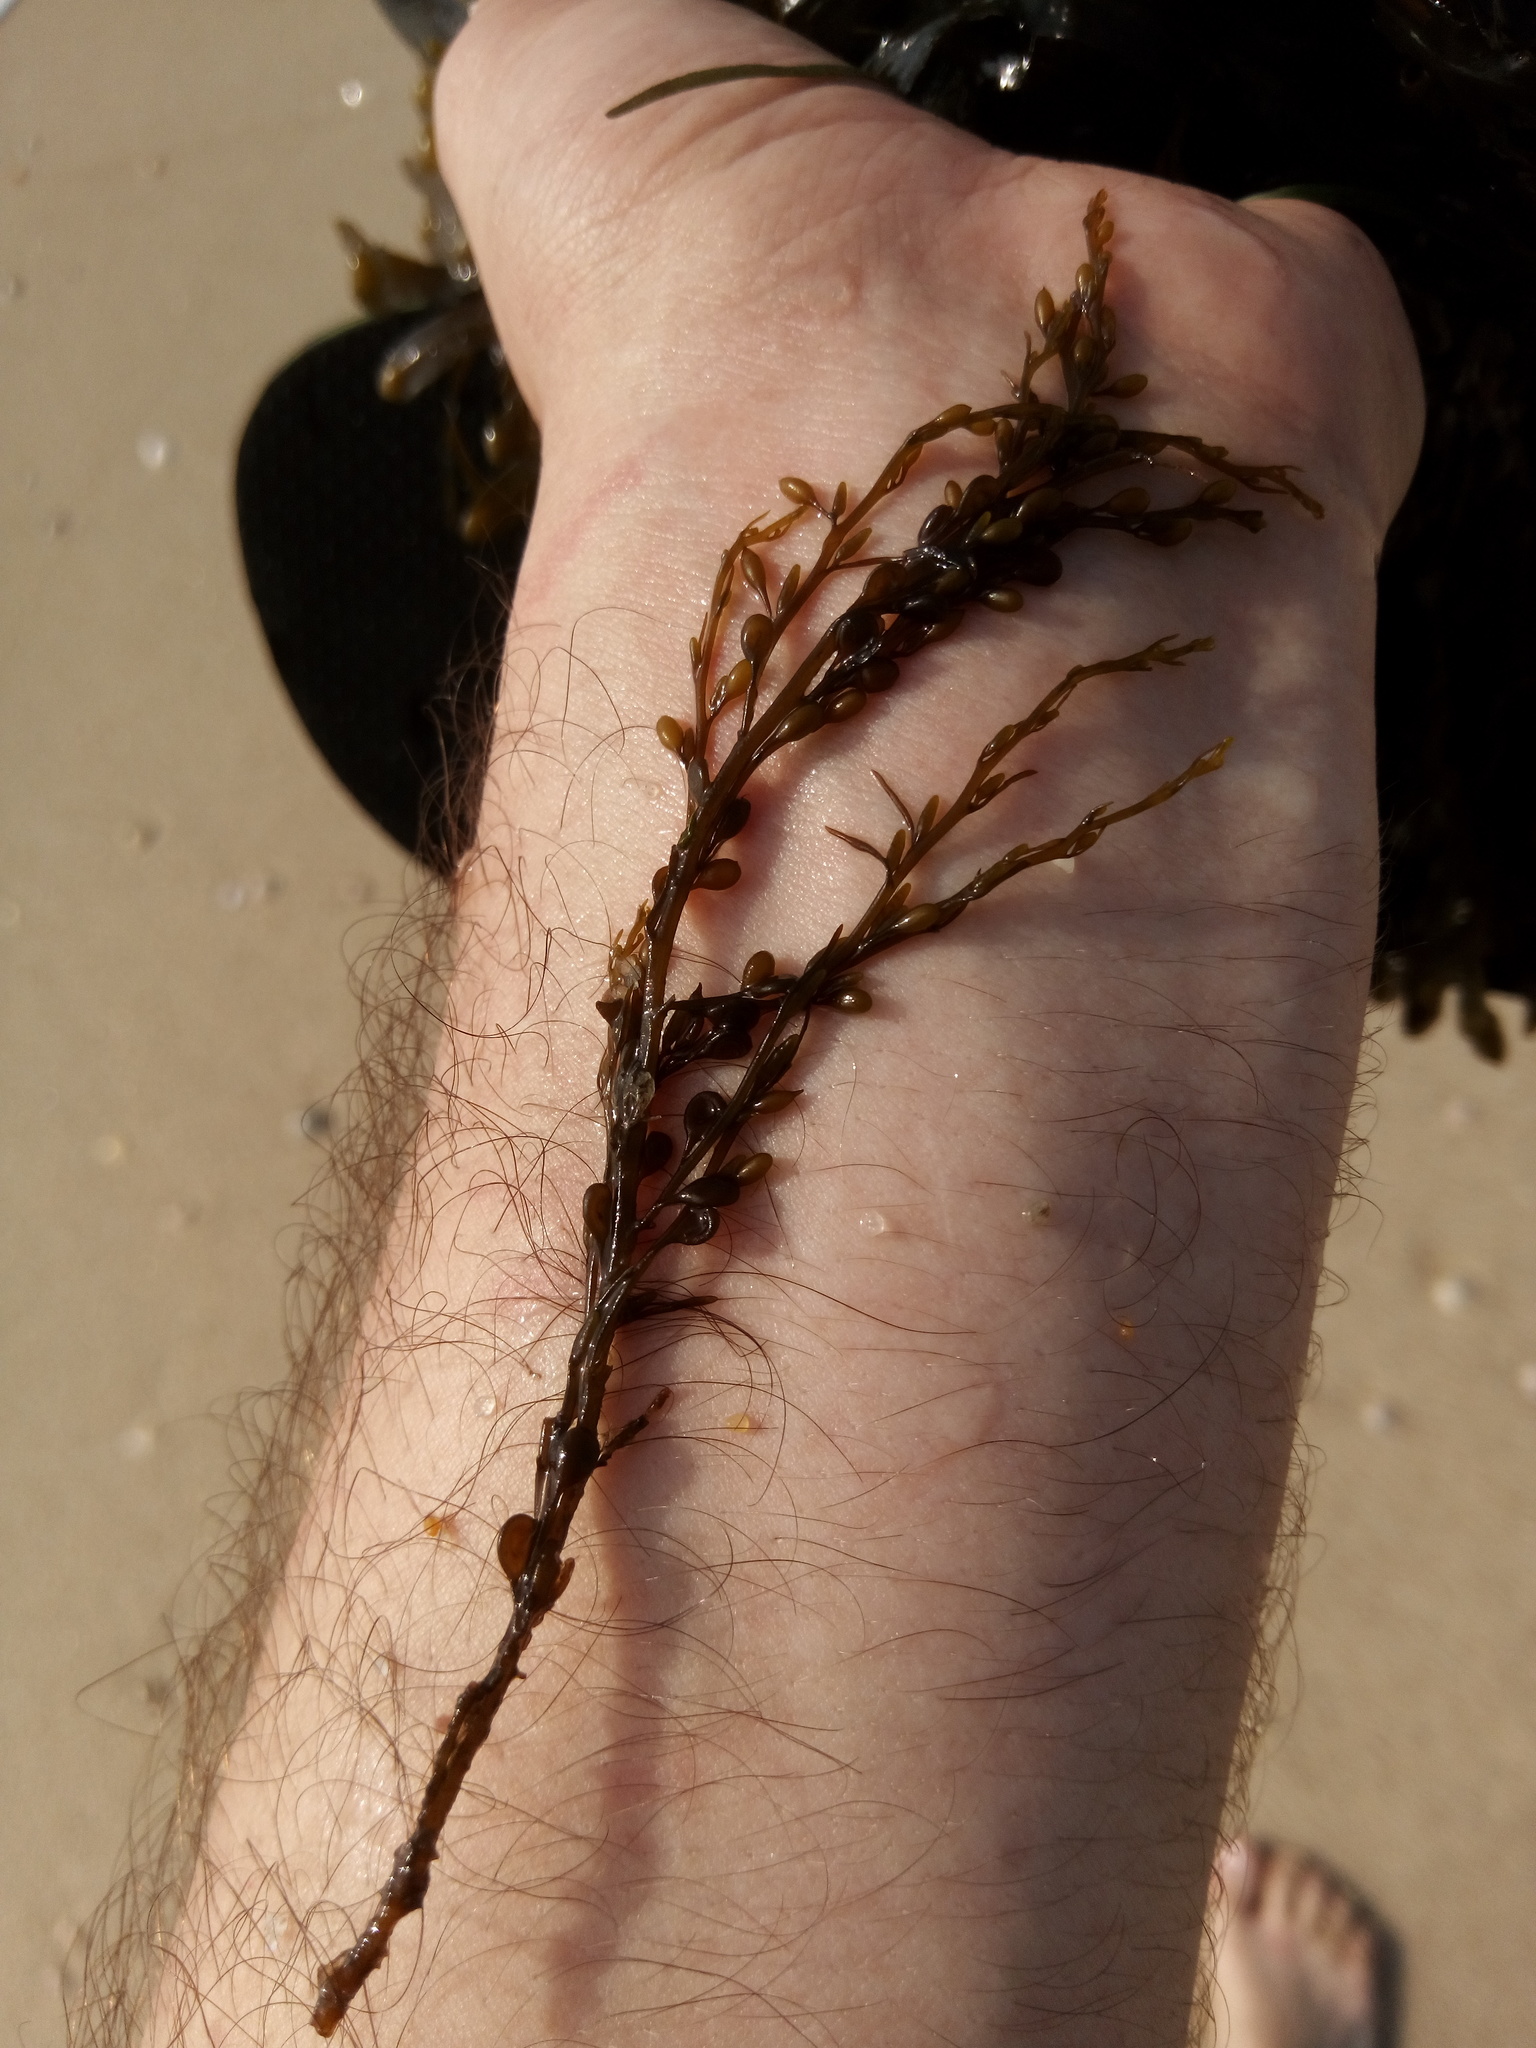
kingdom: Chromista
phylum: Ochrophyta
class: Phaeophyceae
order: Fucales
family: Sargassaceae
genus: Sargassum
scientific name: Sargassum muticum
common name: Japweed
